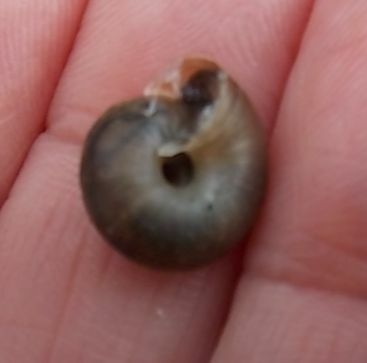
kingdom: Animalia
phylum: Mollusca
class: Gastropoda
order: Stylommatophora
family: Hygromiidae
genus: Trochulus
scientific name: Trochulus striolatus
